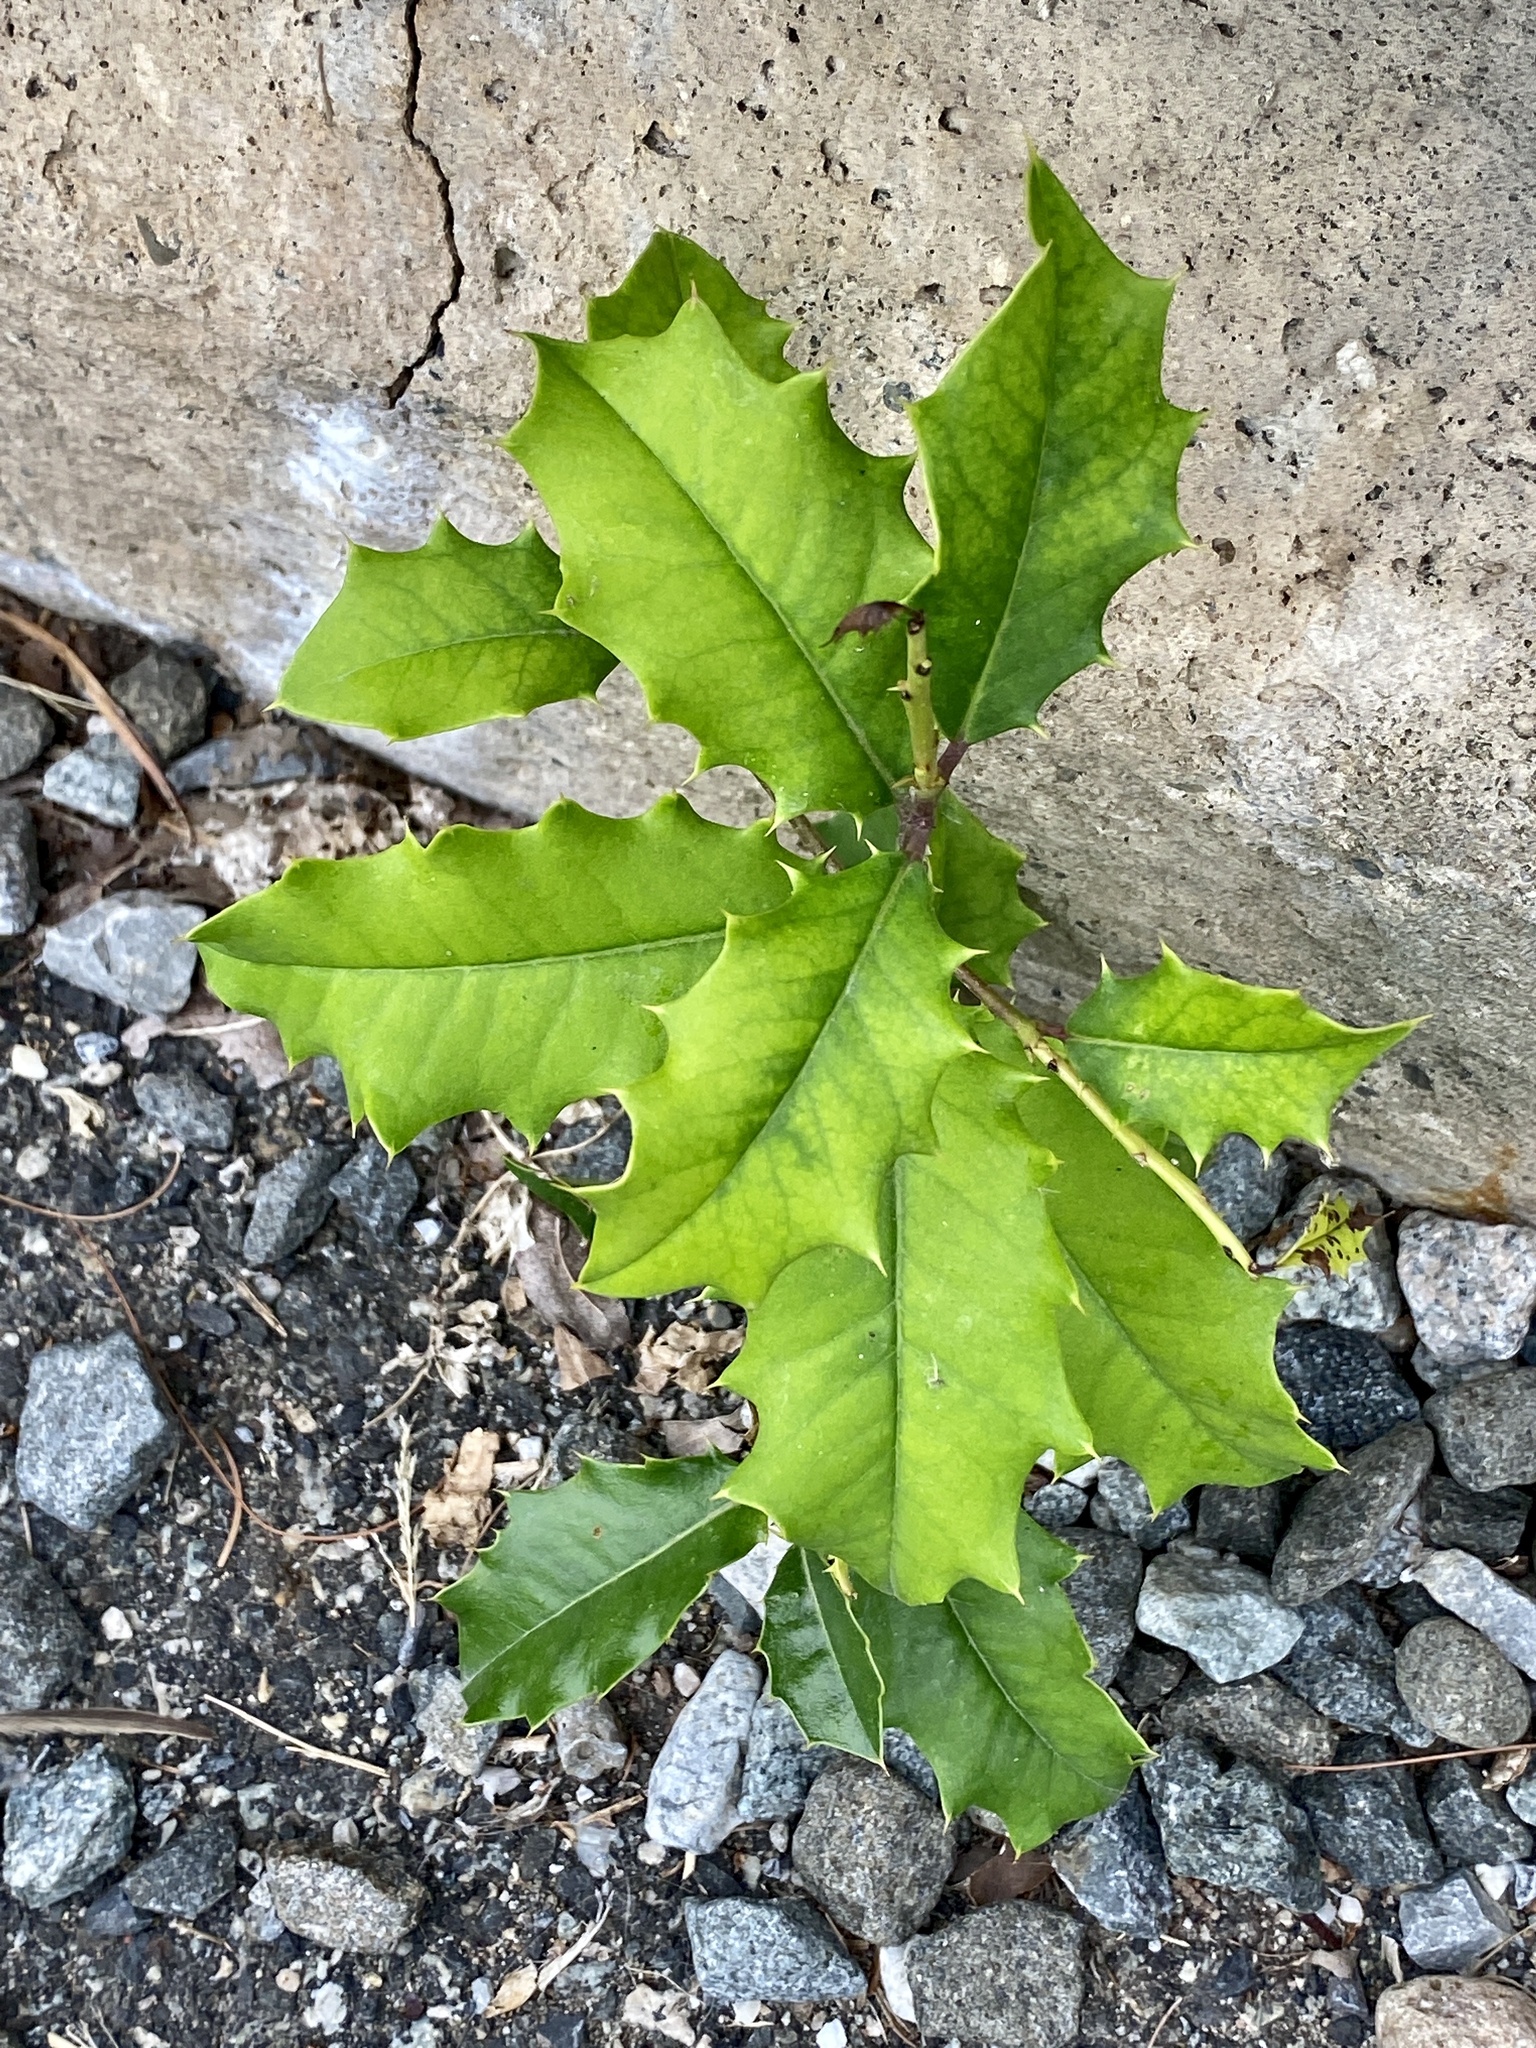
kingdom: Plantae
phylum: Tracheophyta
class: Magnoliopsida
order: Aquifoliales
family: Aquifoliaceae
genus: Ilex
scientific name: Ilex opaca
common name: American holly
